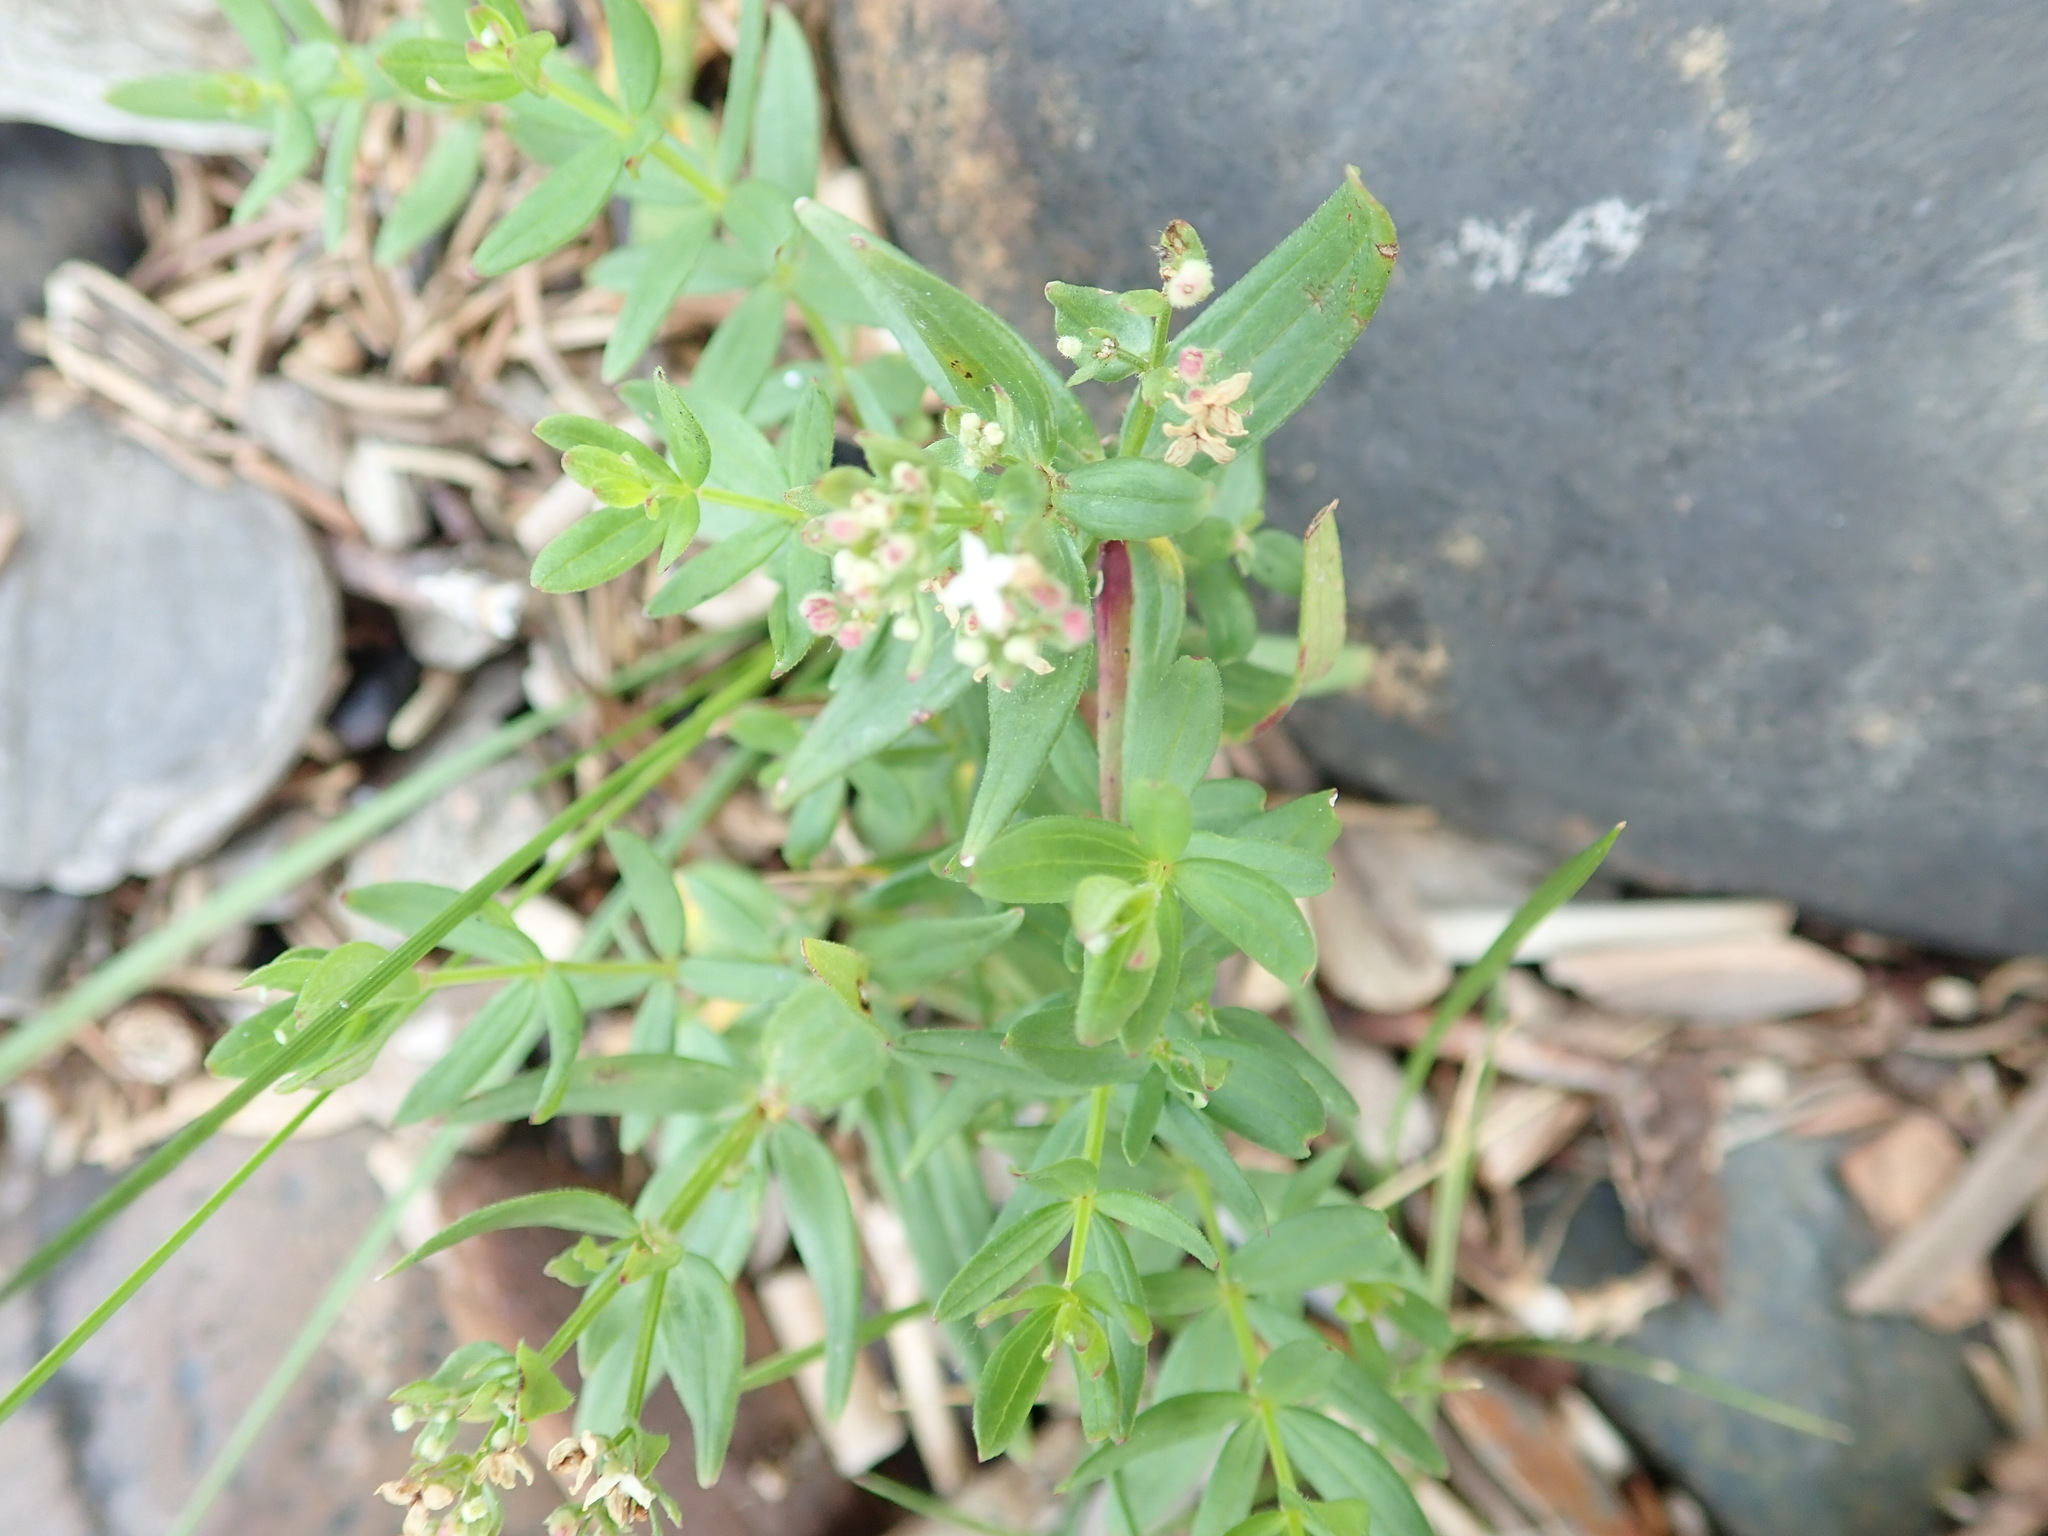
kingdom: Plantae
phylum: Tracheophyta
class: Magnoliopsida
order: Gentianales
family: Rubiaceae
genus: Galium
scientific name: Galium boreale
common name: Northern bedstraw
